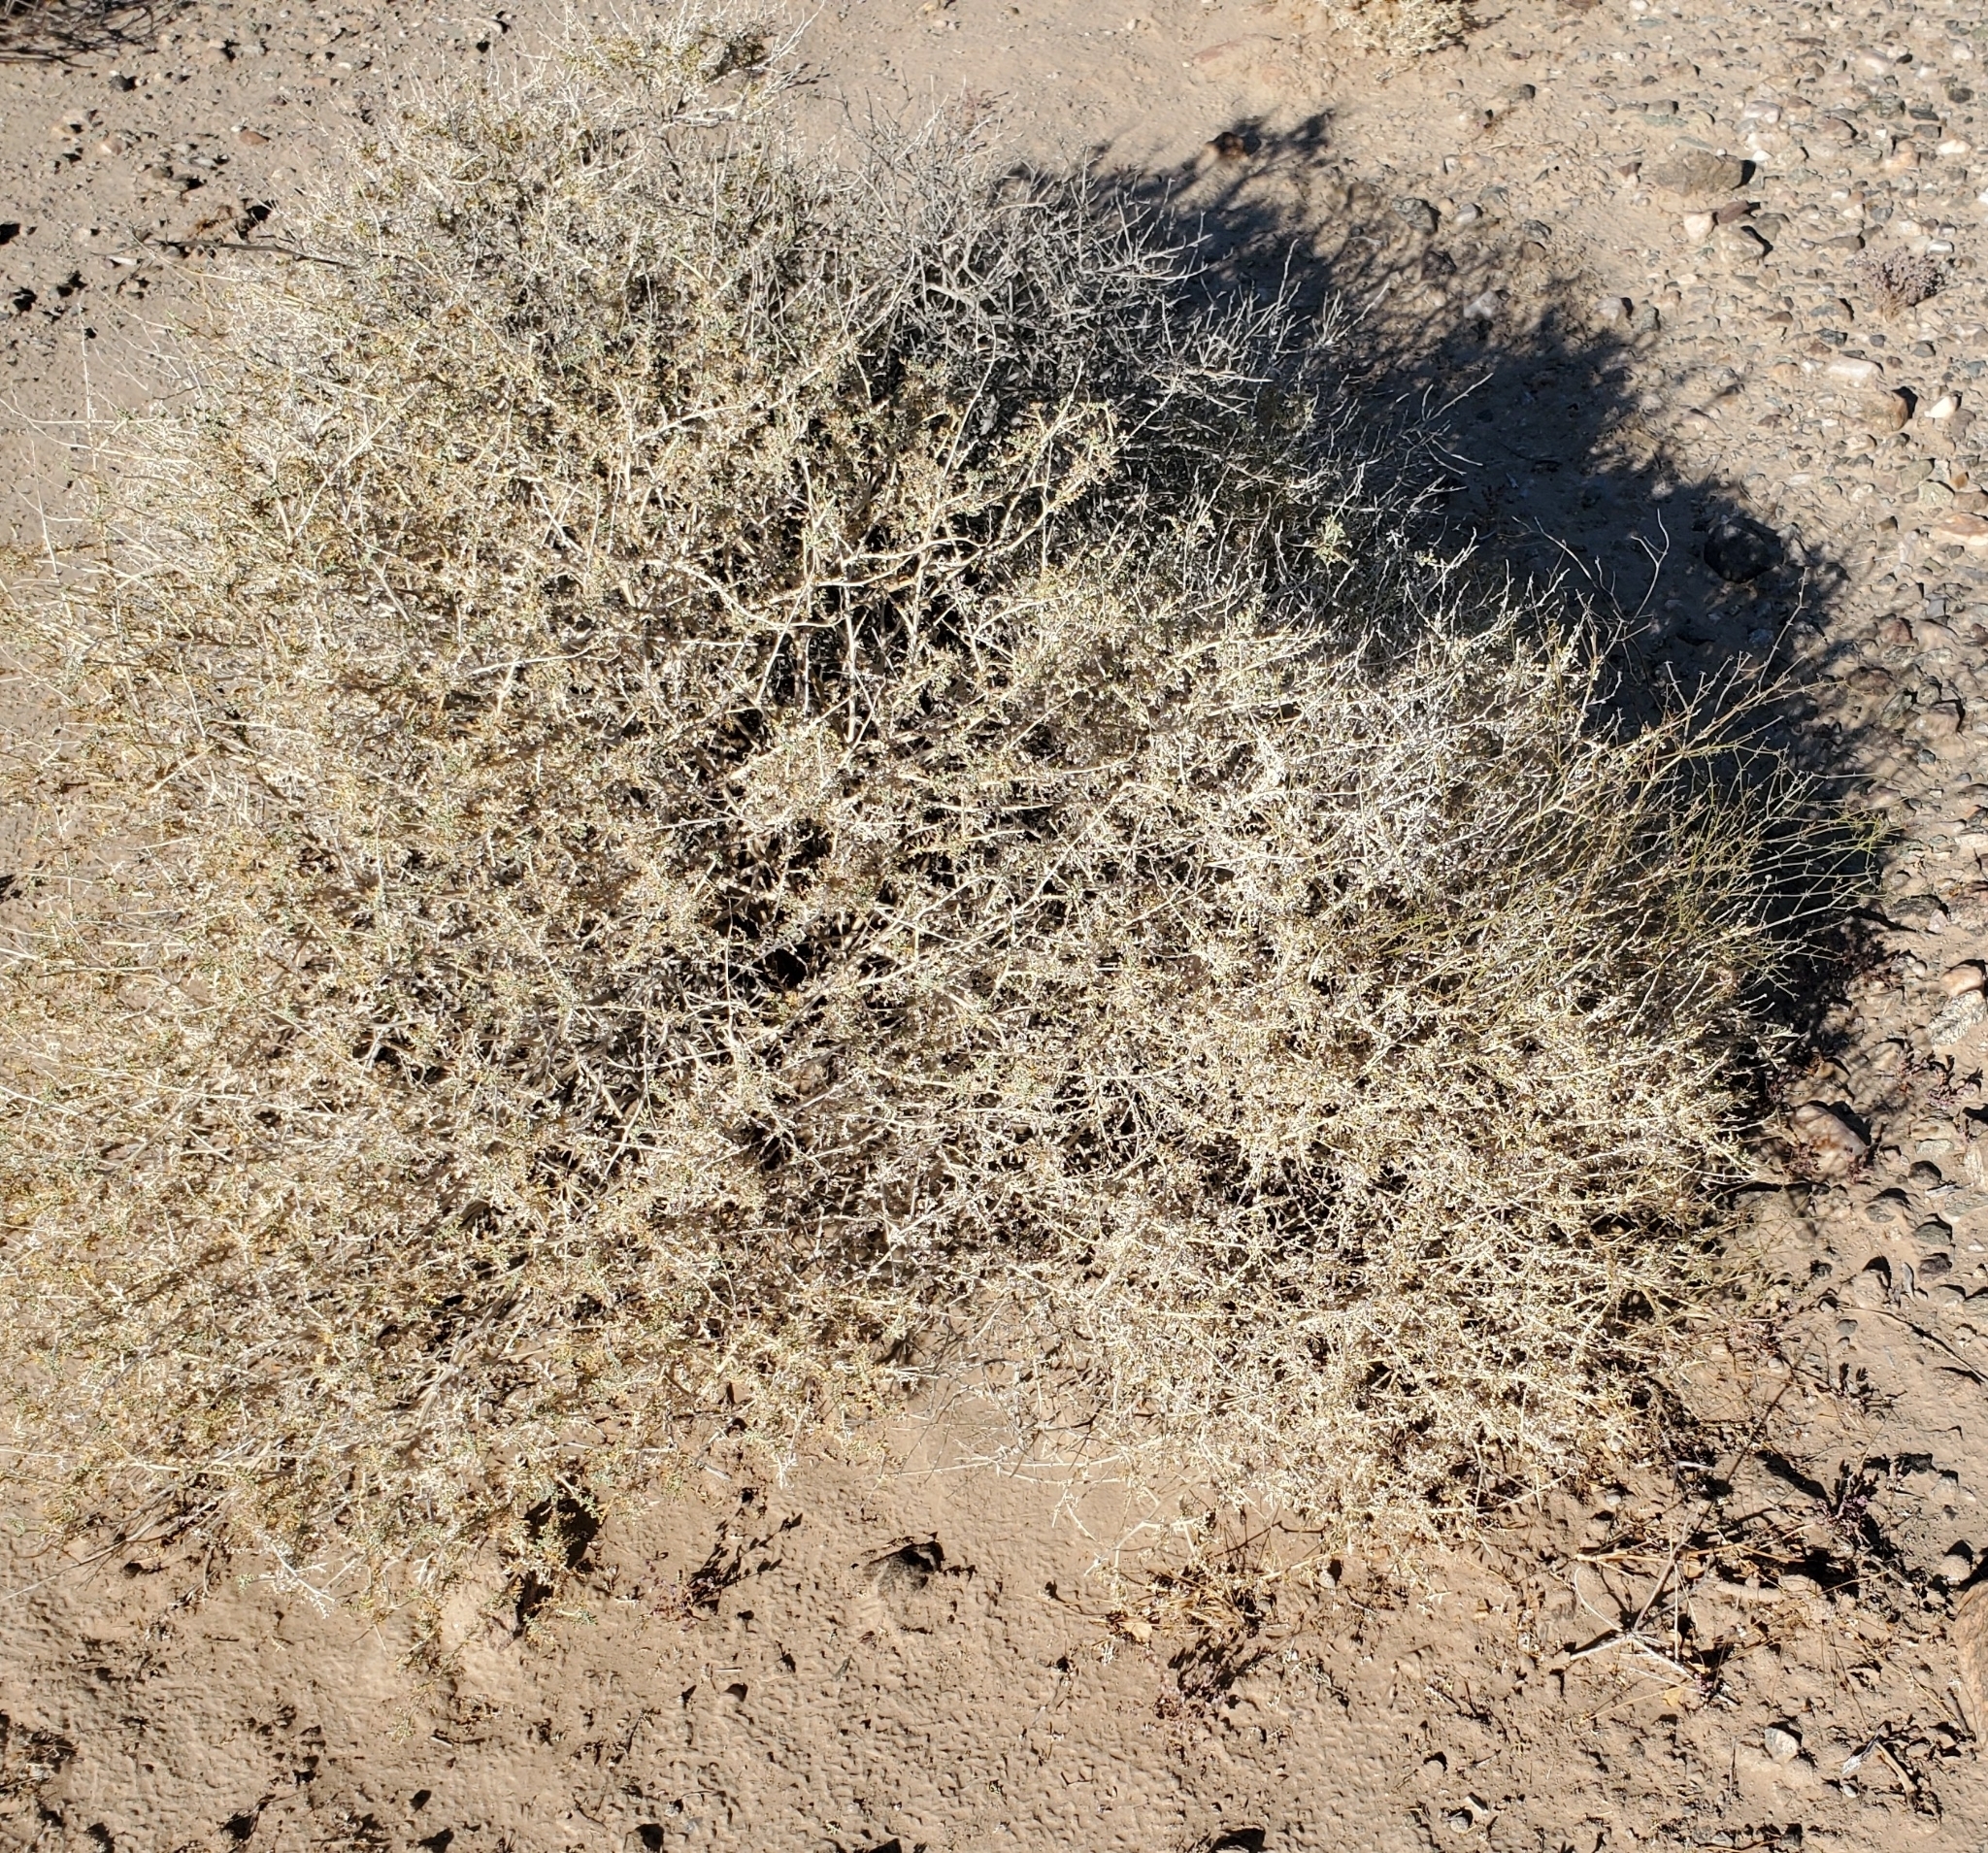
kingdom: Plantae
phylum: Tracheophyta
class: Magnoliopsida
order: Asterales
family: Asteraceae
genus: Ambrosia
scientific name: Ambrosia dumosa
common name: Bur-sage
